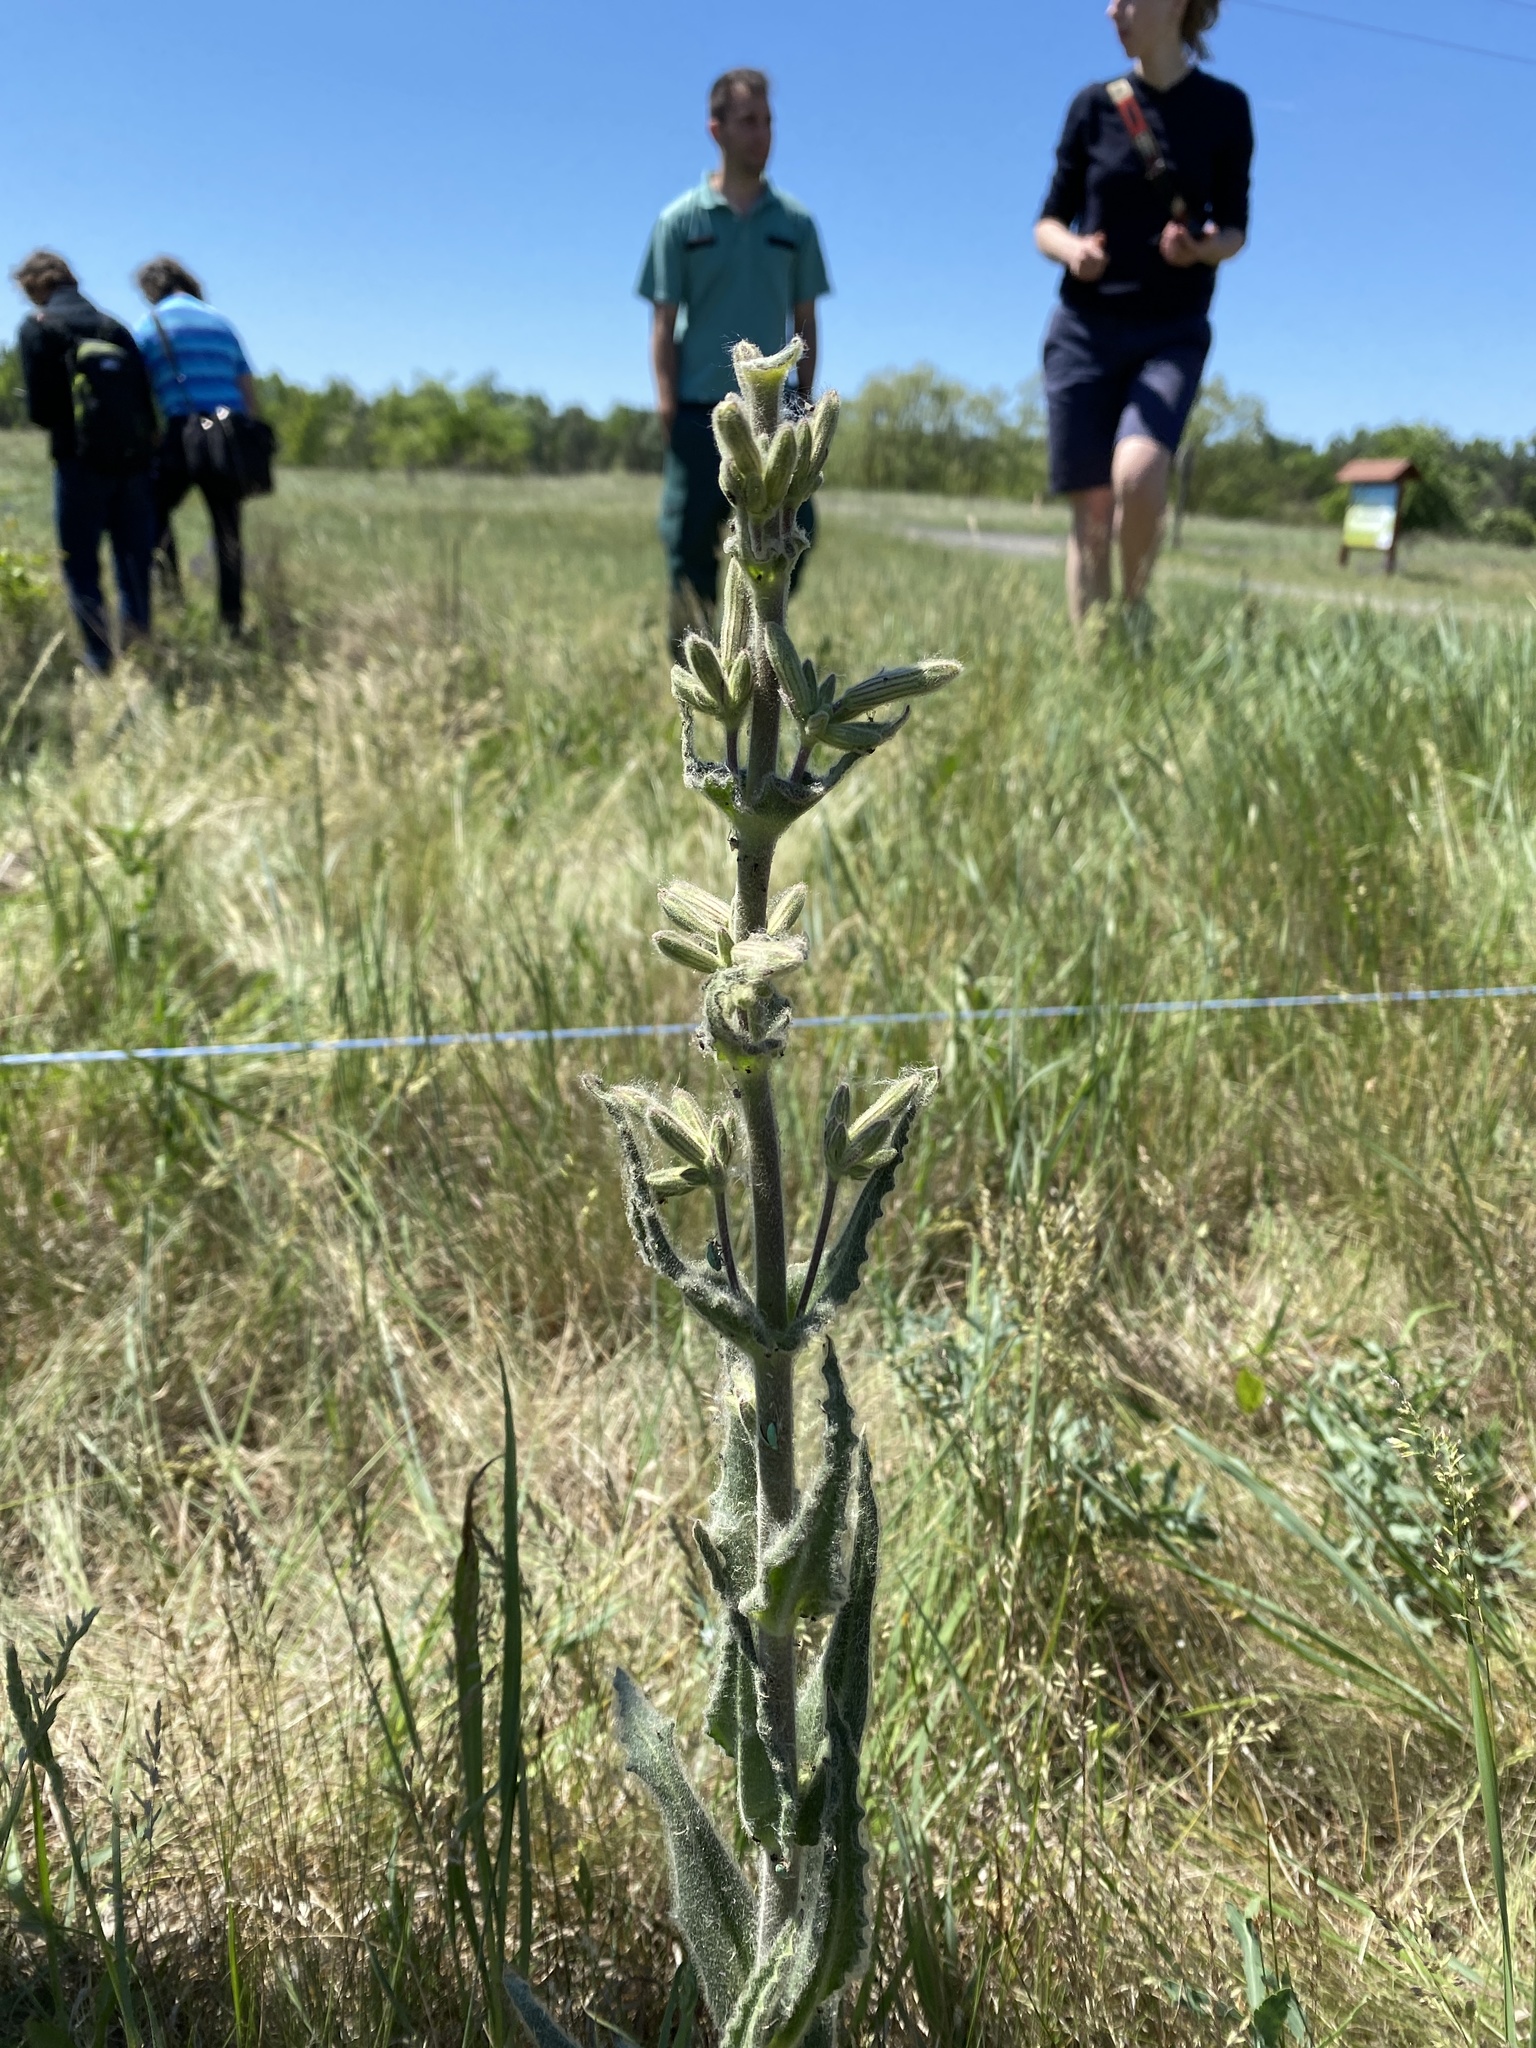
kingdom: Plantae
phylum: Tracheophyta
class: Magnoliopsida
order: Caryophyllales
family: Caryophyllaceae
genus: Silene
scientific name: Silene viscosa
